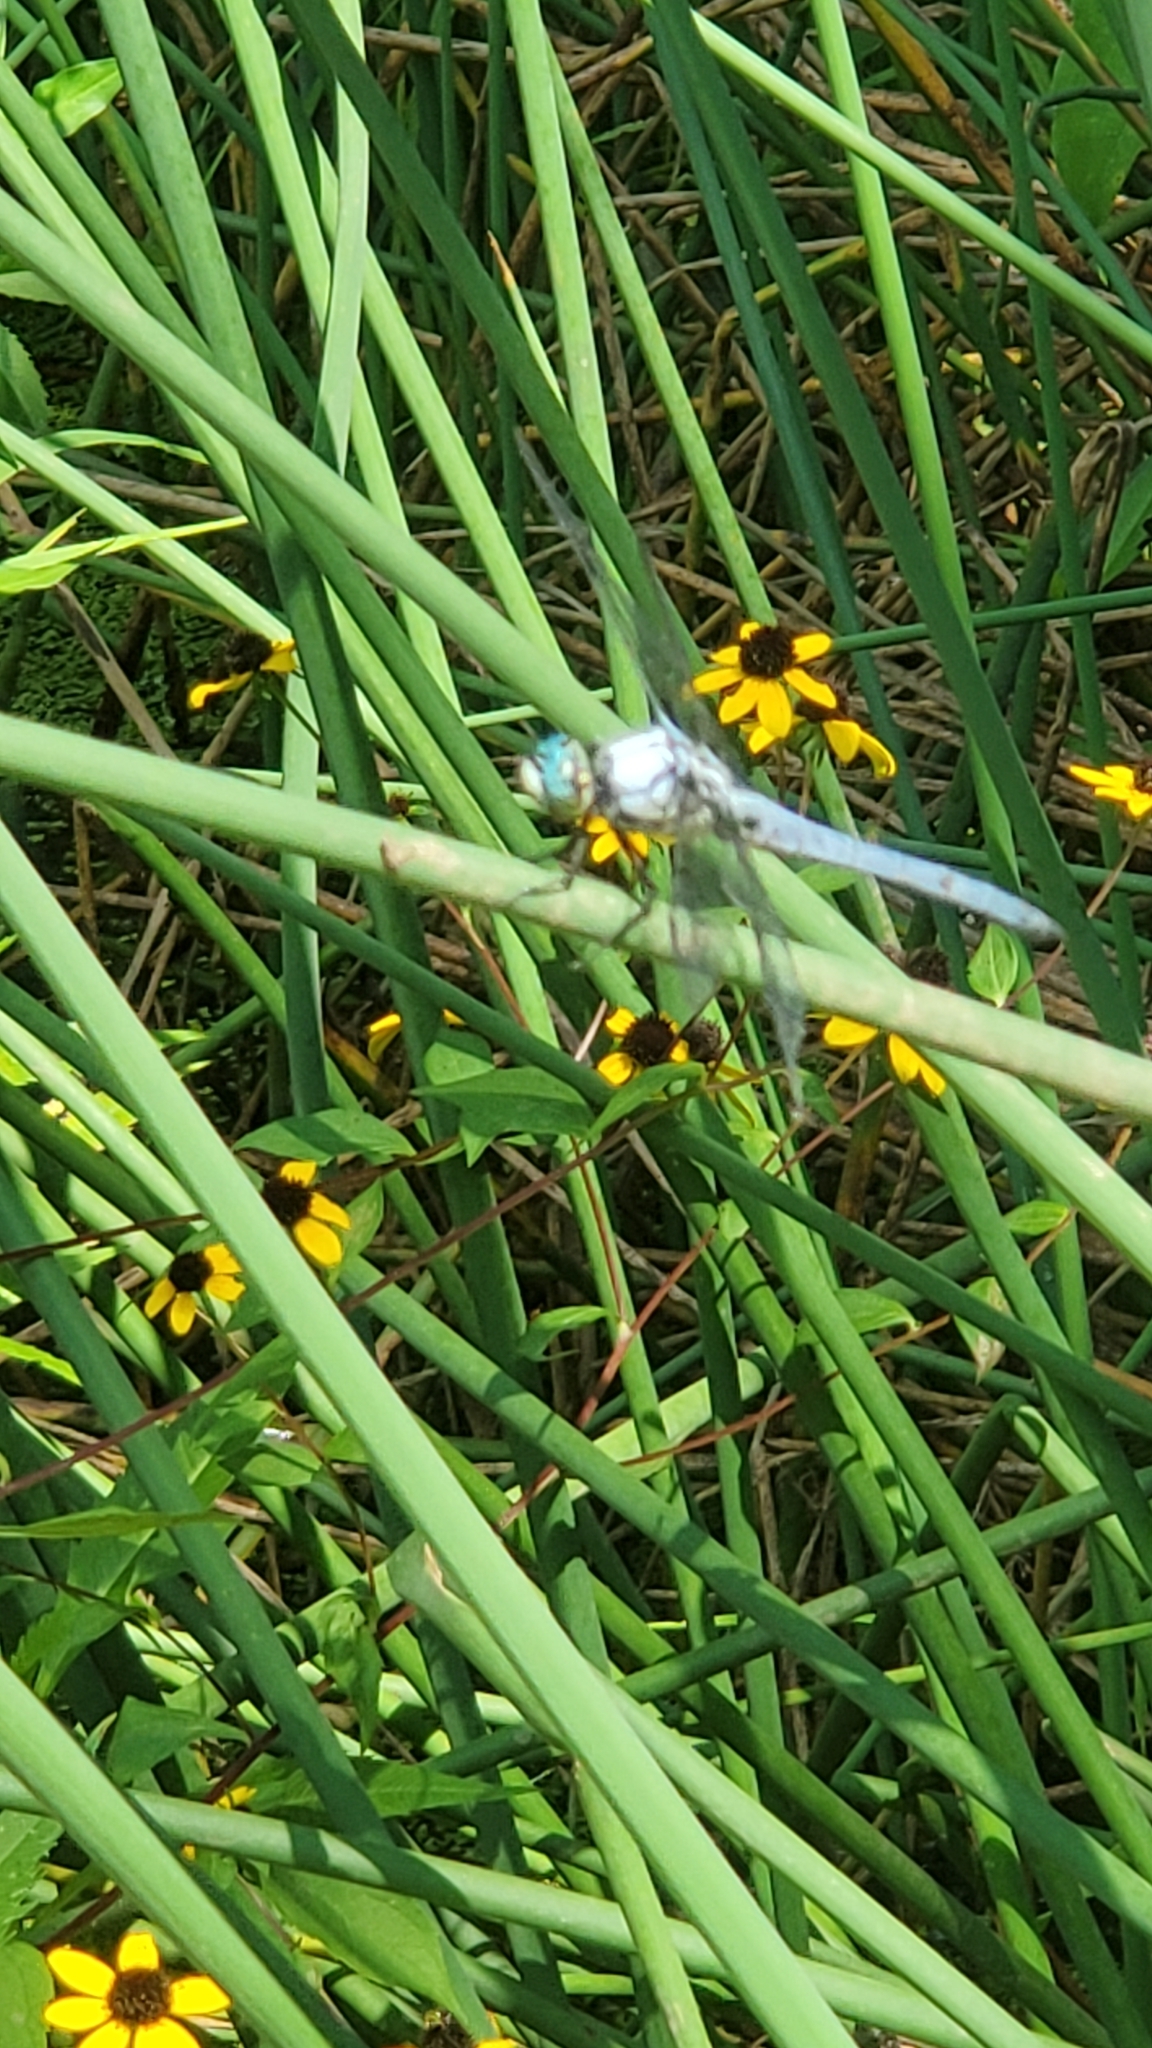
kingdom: Animalia
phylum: Arthropoda
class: Insecta
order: Odonata
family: Libellulidae
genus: Libellula
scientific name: Libellula vibrans
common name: Great blue skimmer
